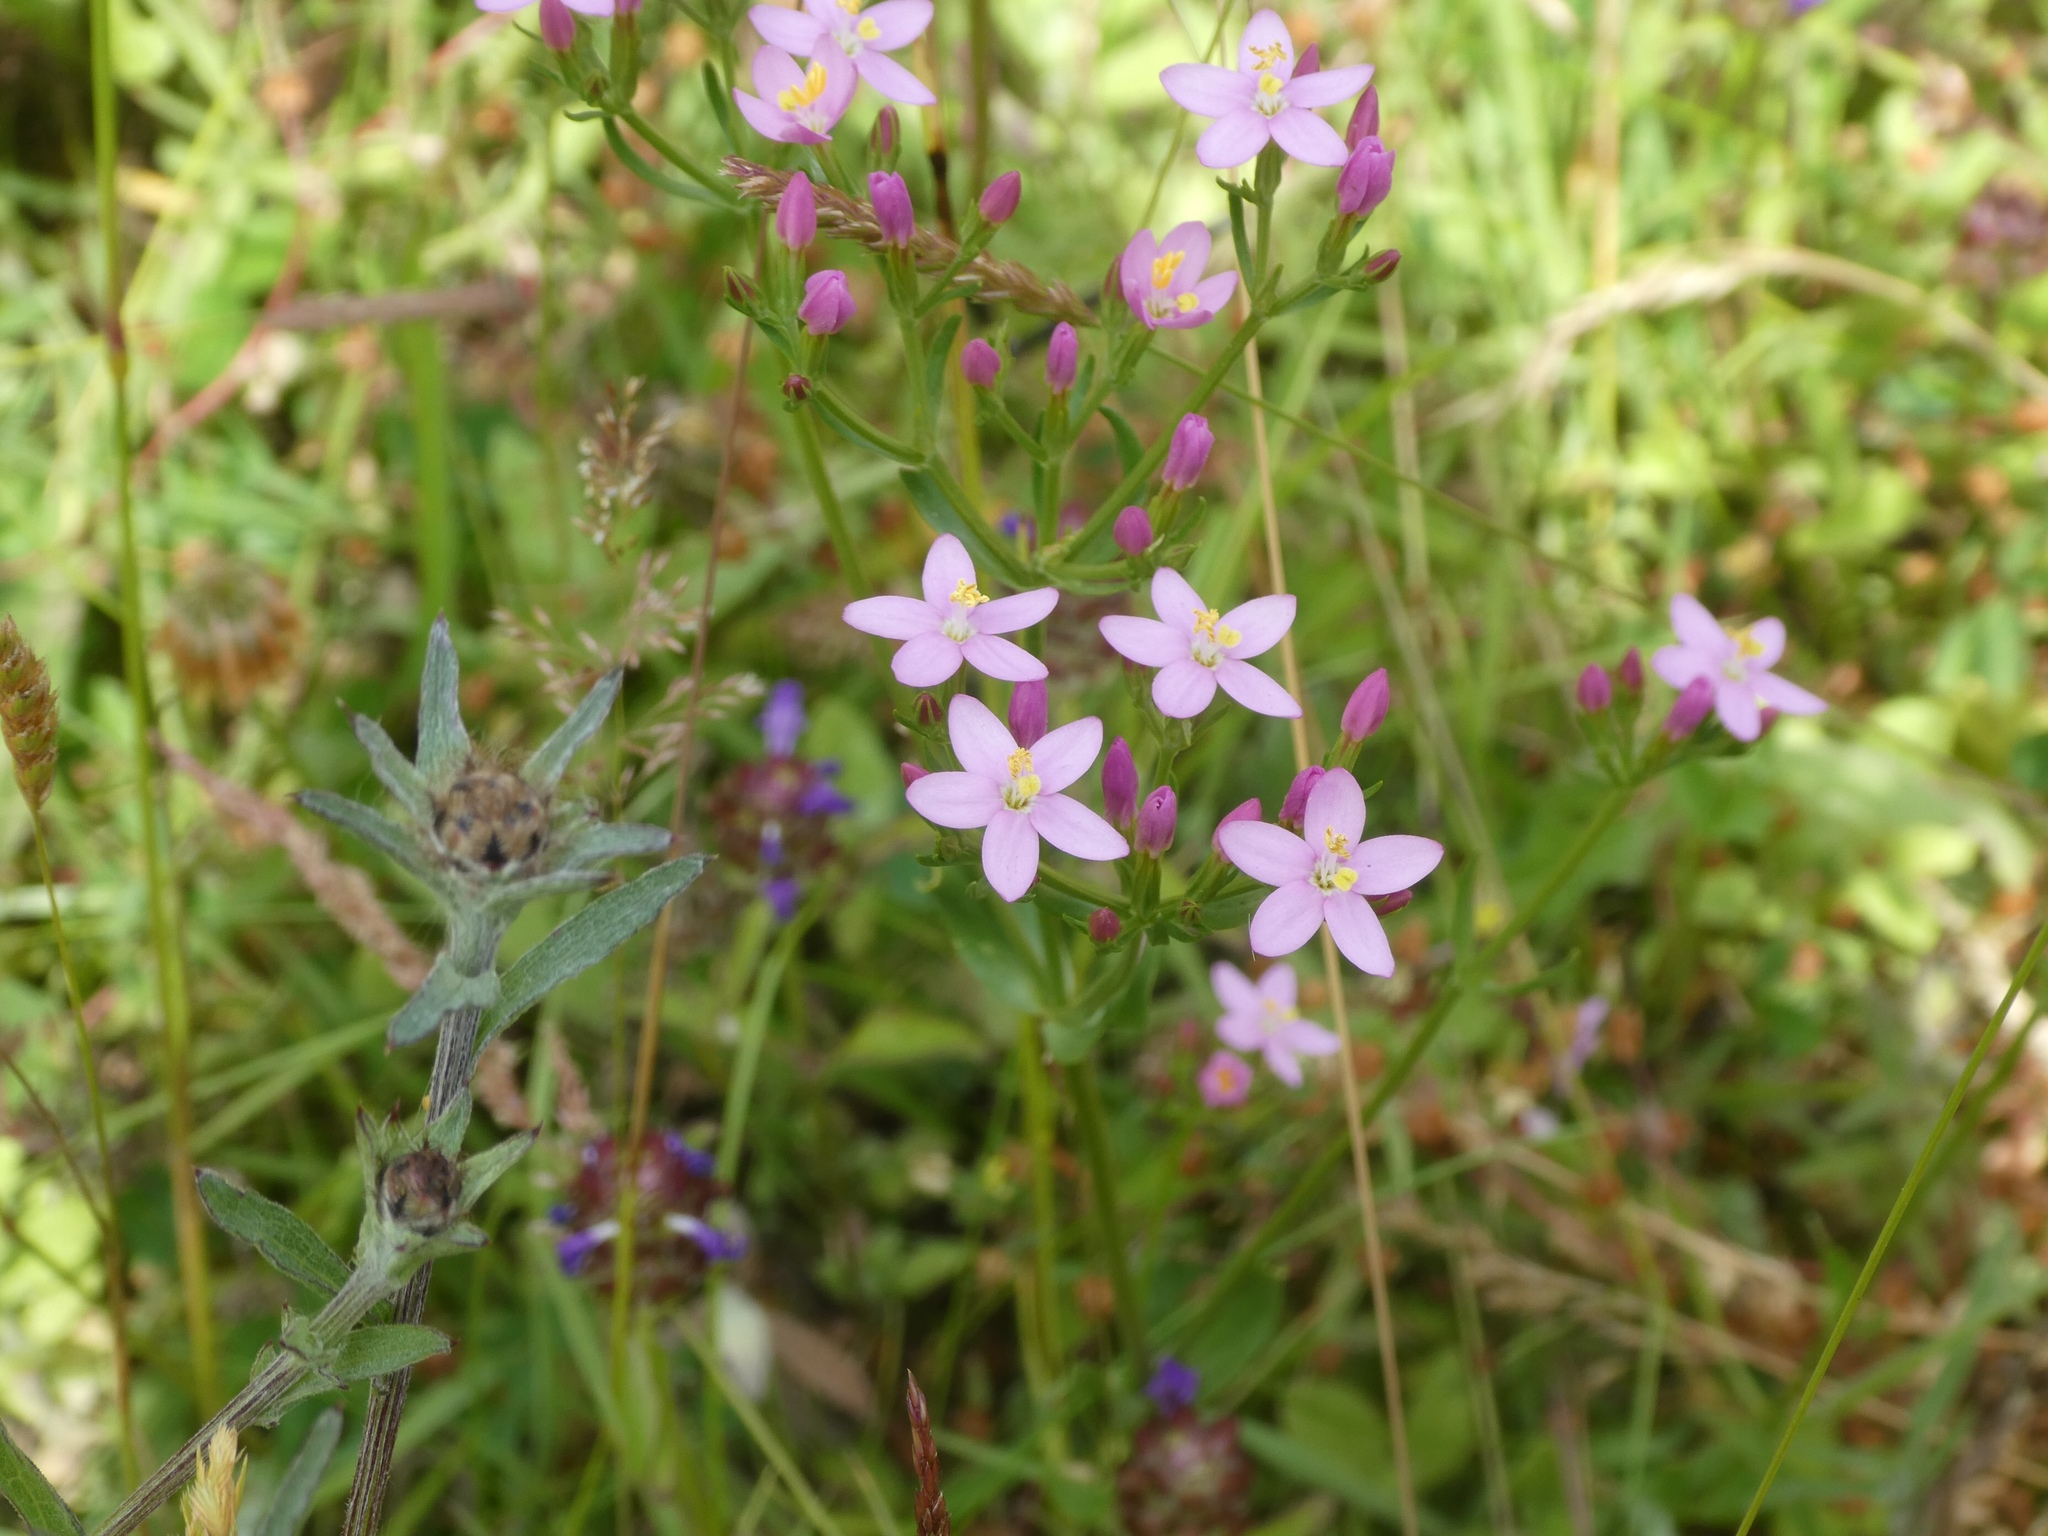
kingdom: Plantae
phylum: Tracheophyta
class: Magnoliopsida
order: Gentianales
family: Gentianaceae
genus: Centaurium
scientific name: Centaurium erythraea
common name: Common centaury
